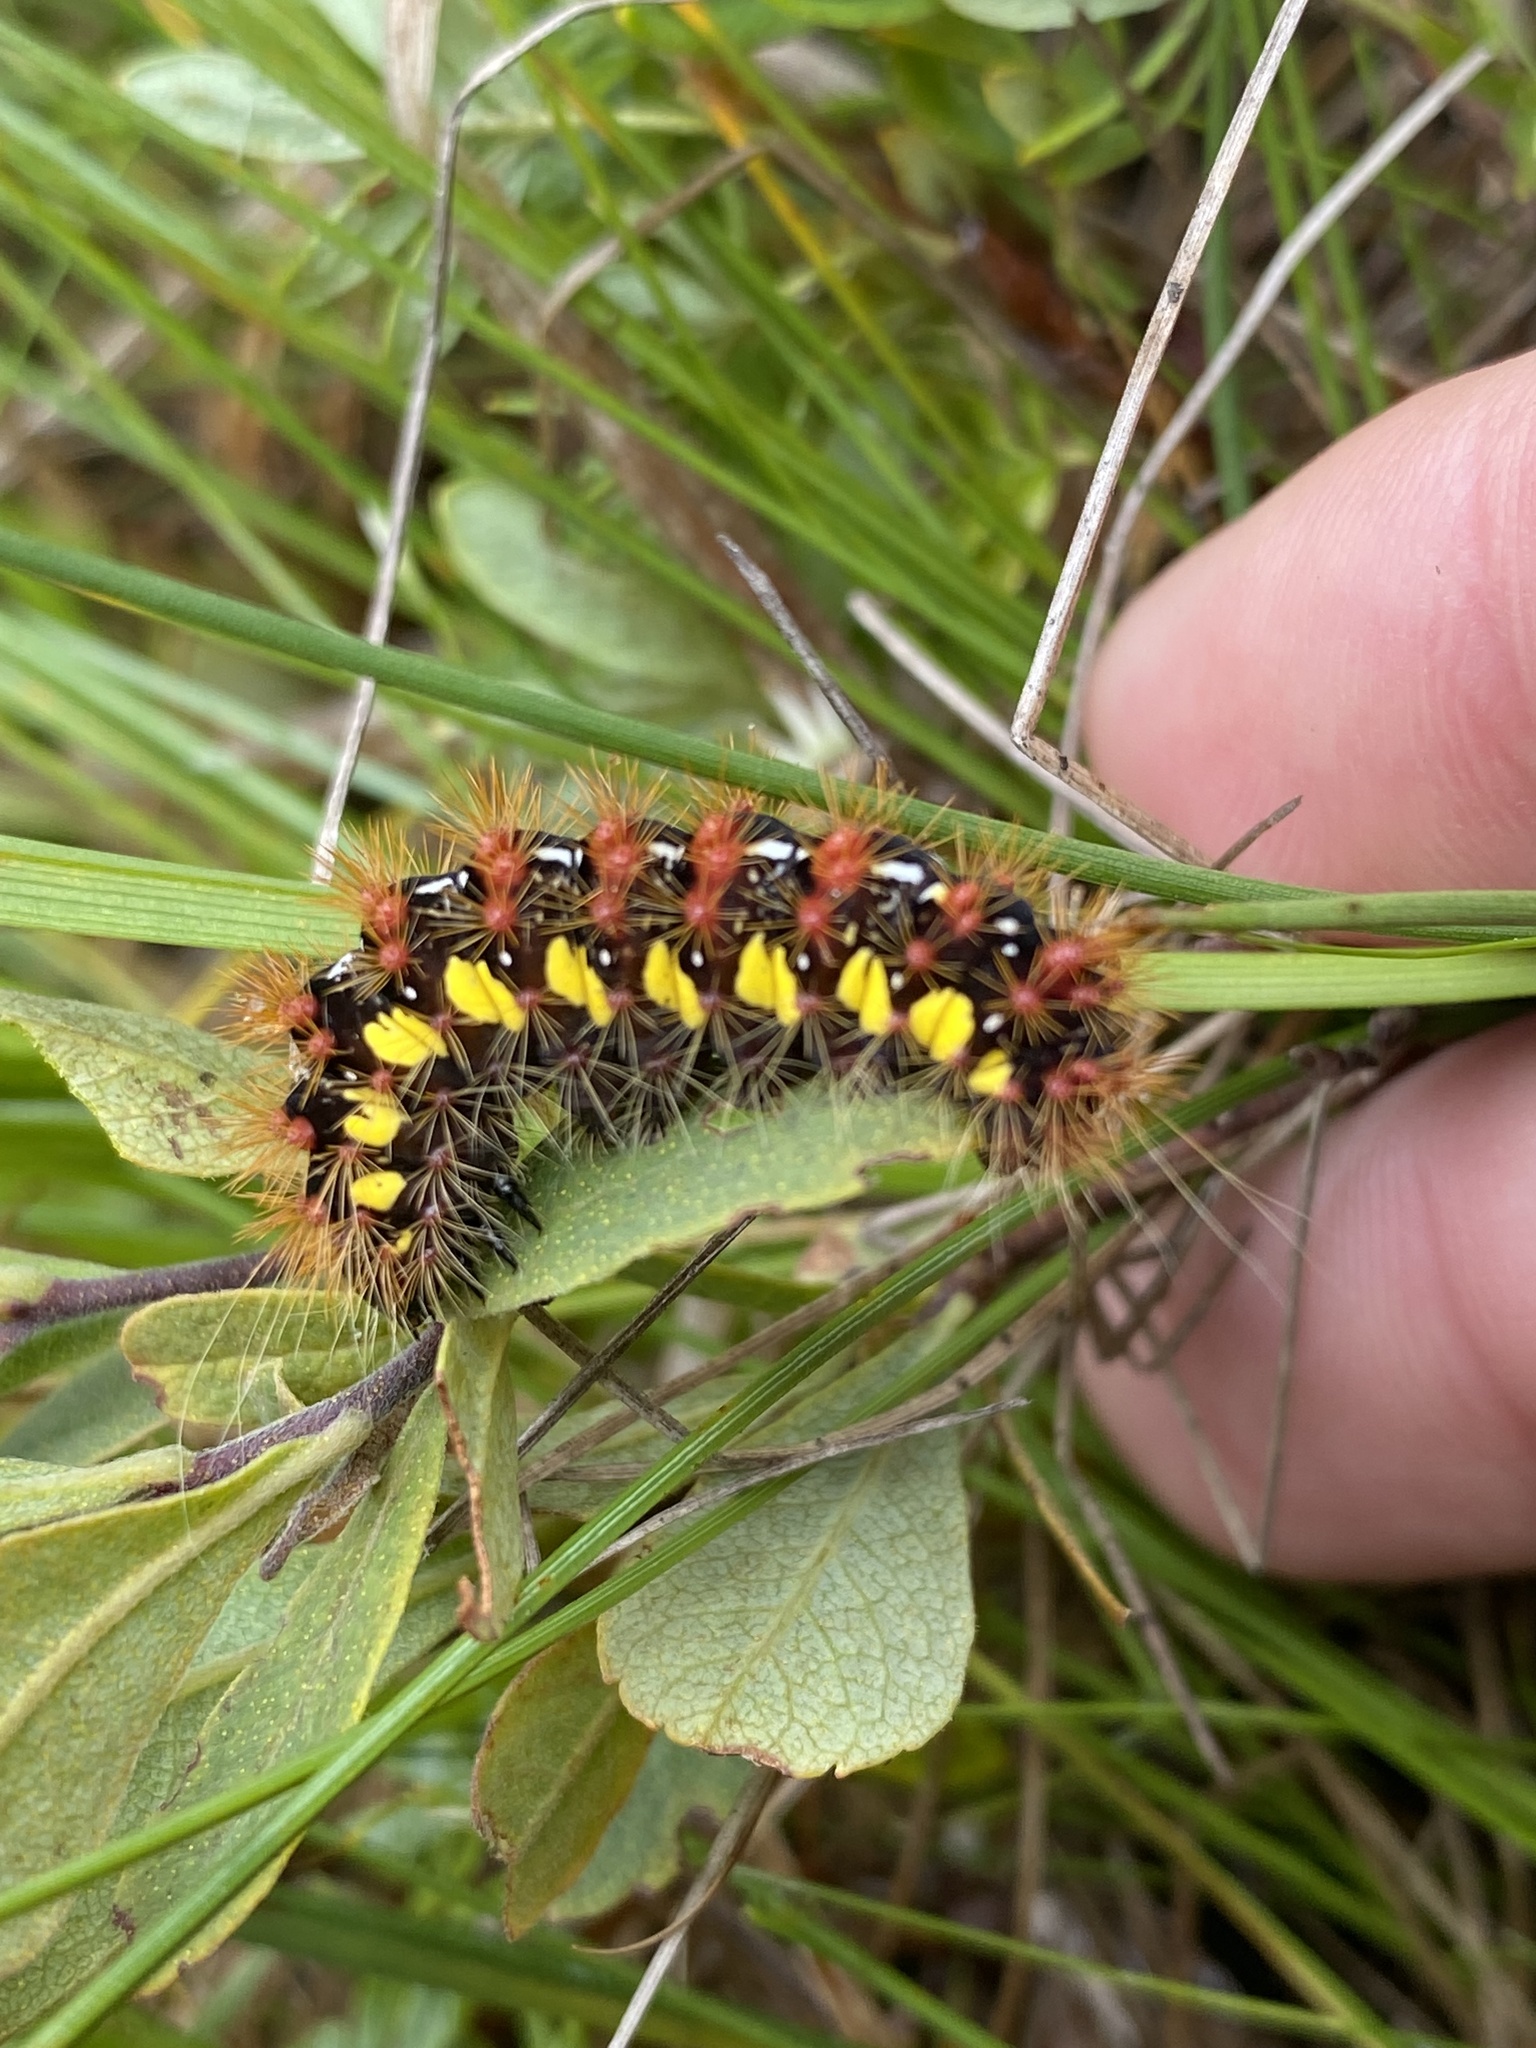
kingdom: Animalia
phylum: Arthropoda
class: Insecta
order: Lepidoptera
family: Noctuidae
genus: Acronicta
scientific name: Acronicta oblinita
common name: Smeared dagger
